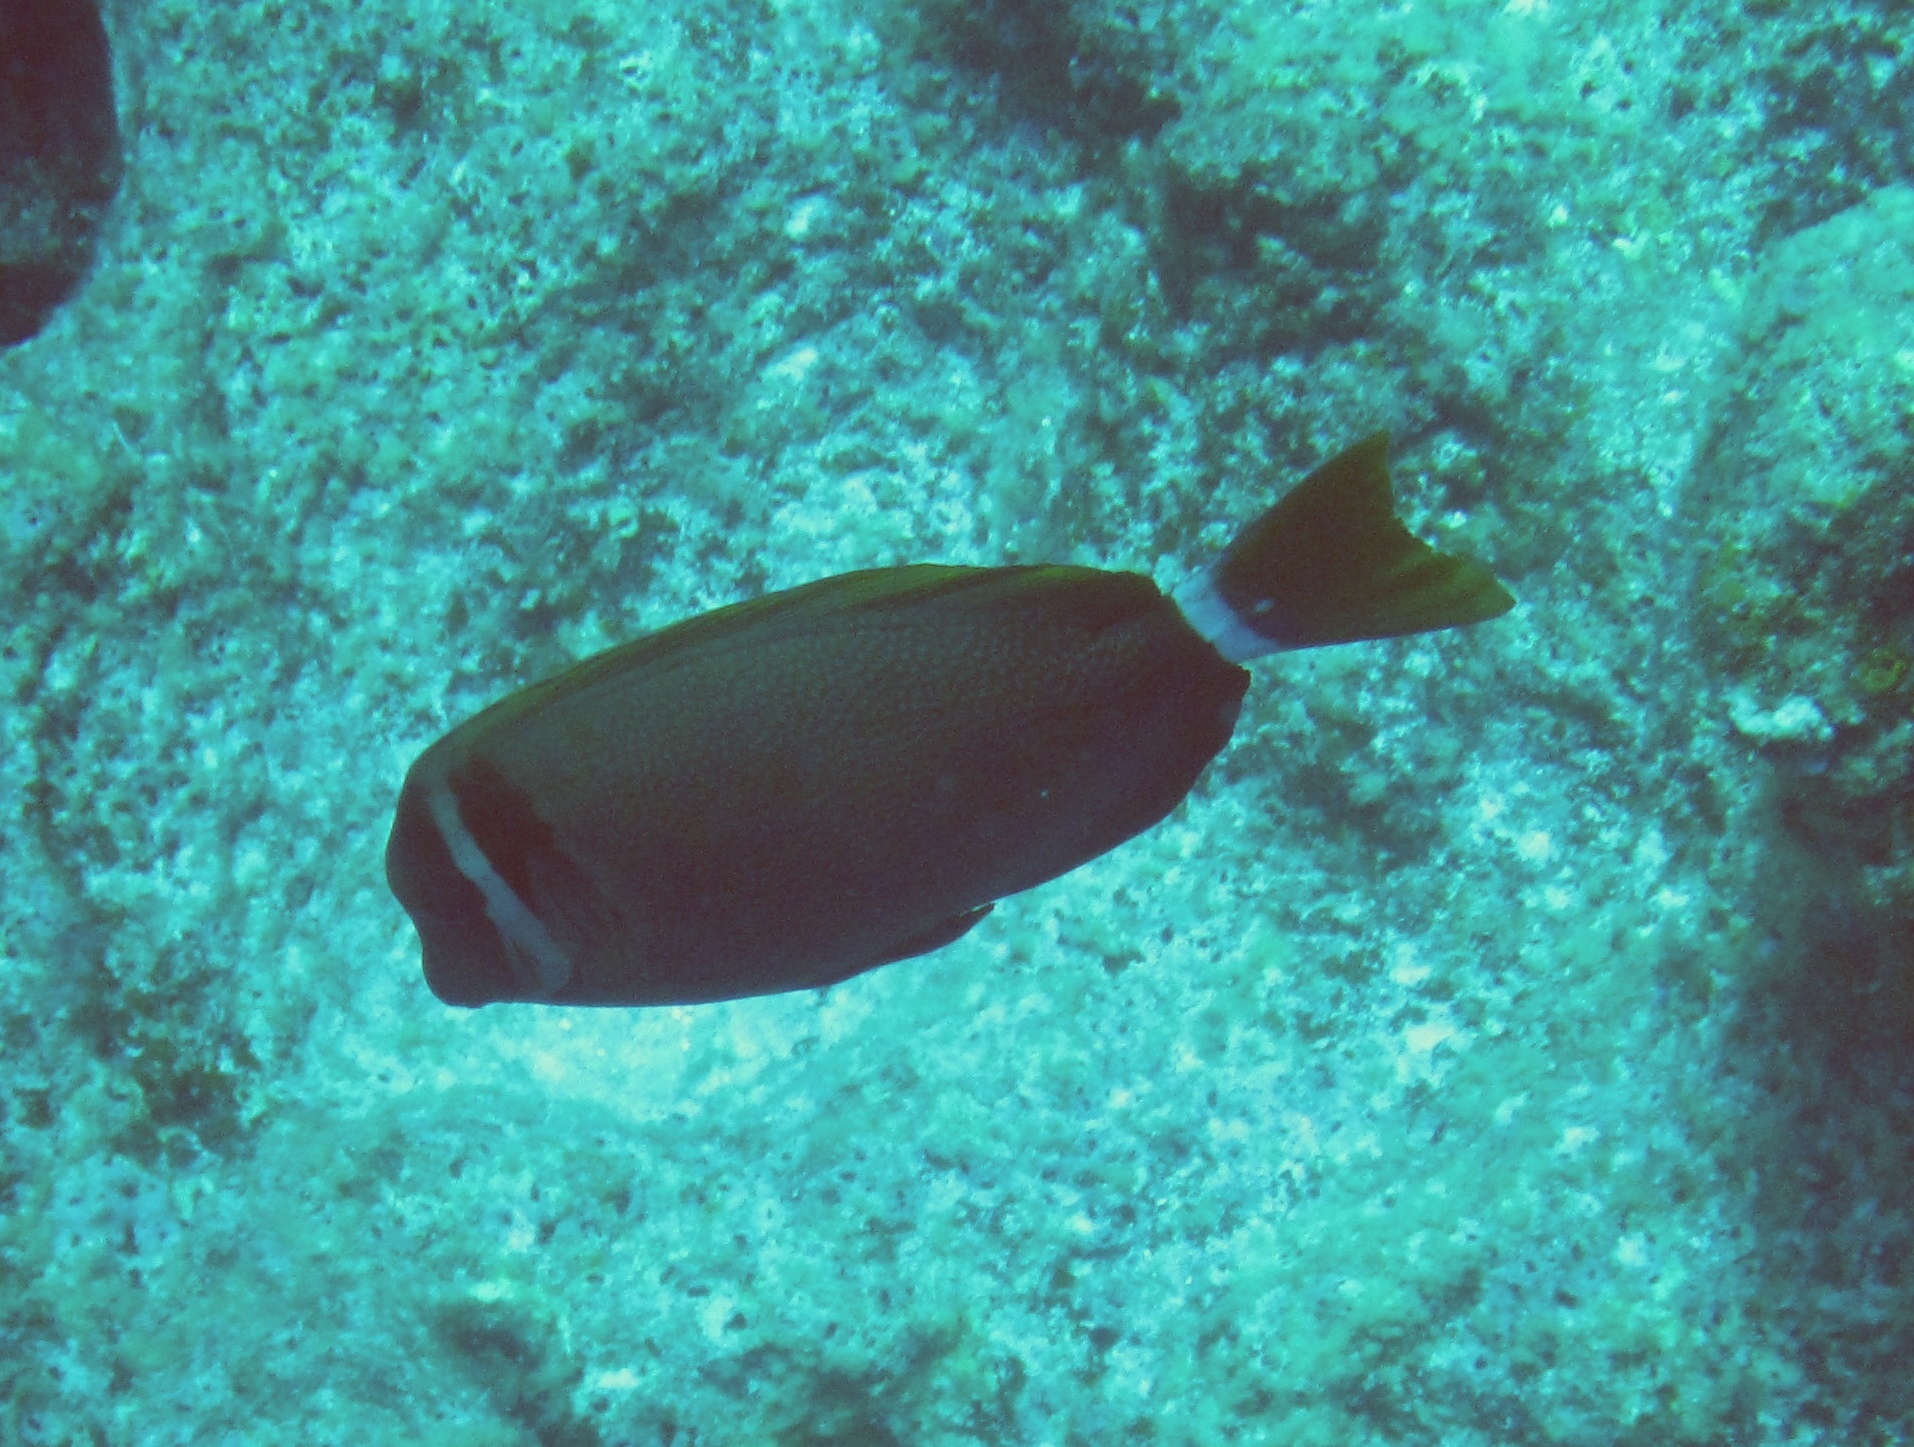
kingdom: Animalia
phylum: Chordata
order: Perciformes
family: Acanthuridae
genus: Acanthurus
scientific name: Acanthurus leucopareius
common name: Head-band surgeonfish
